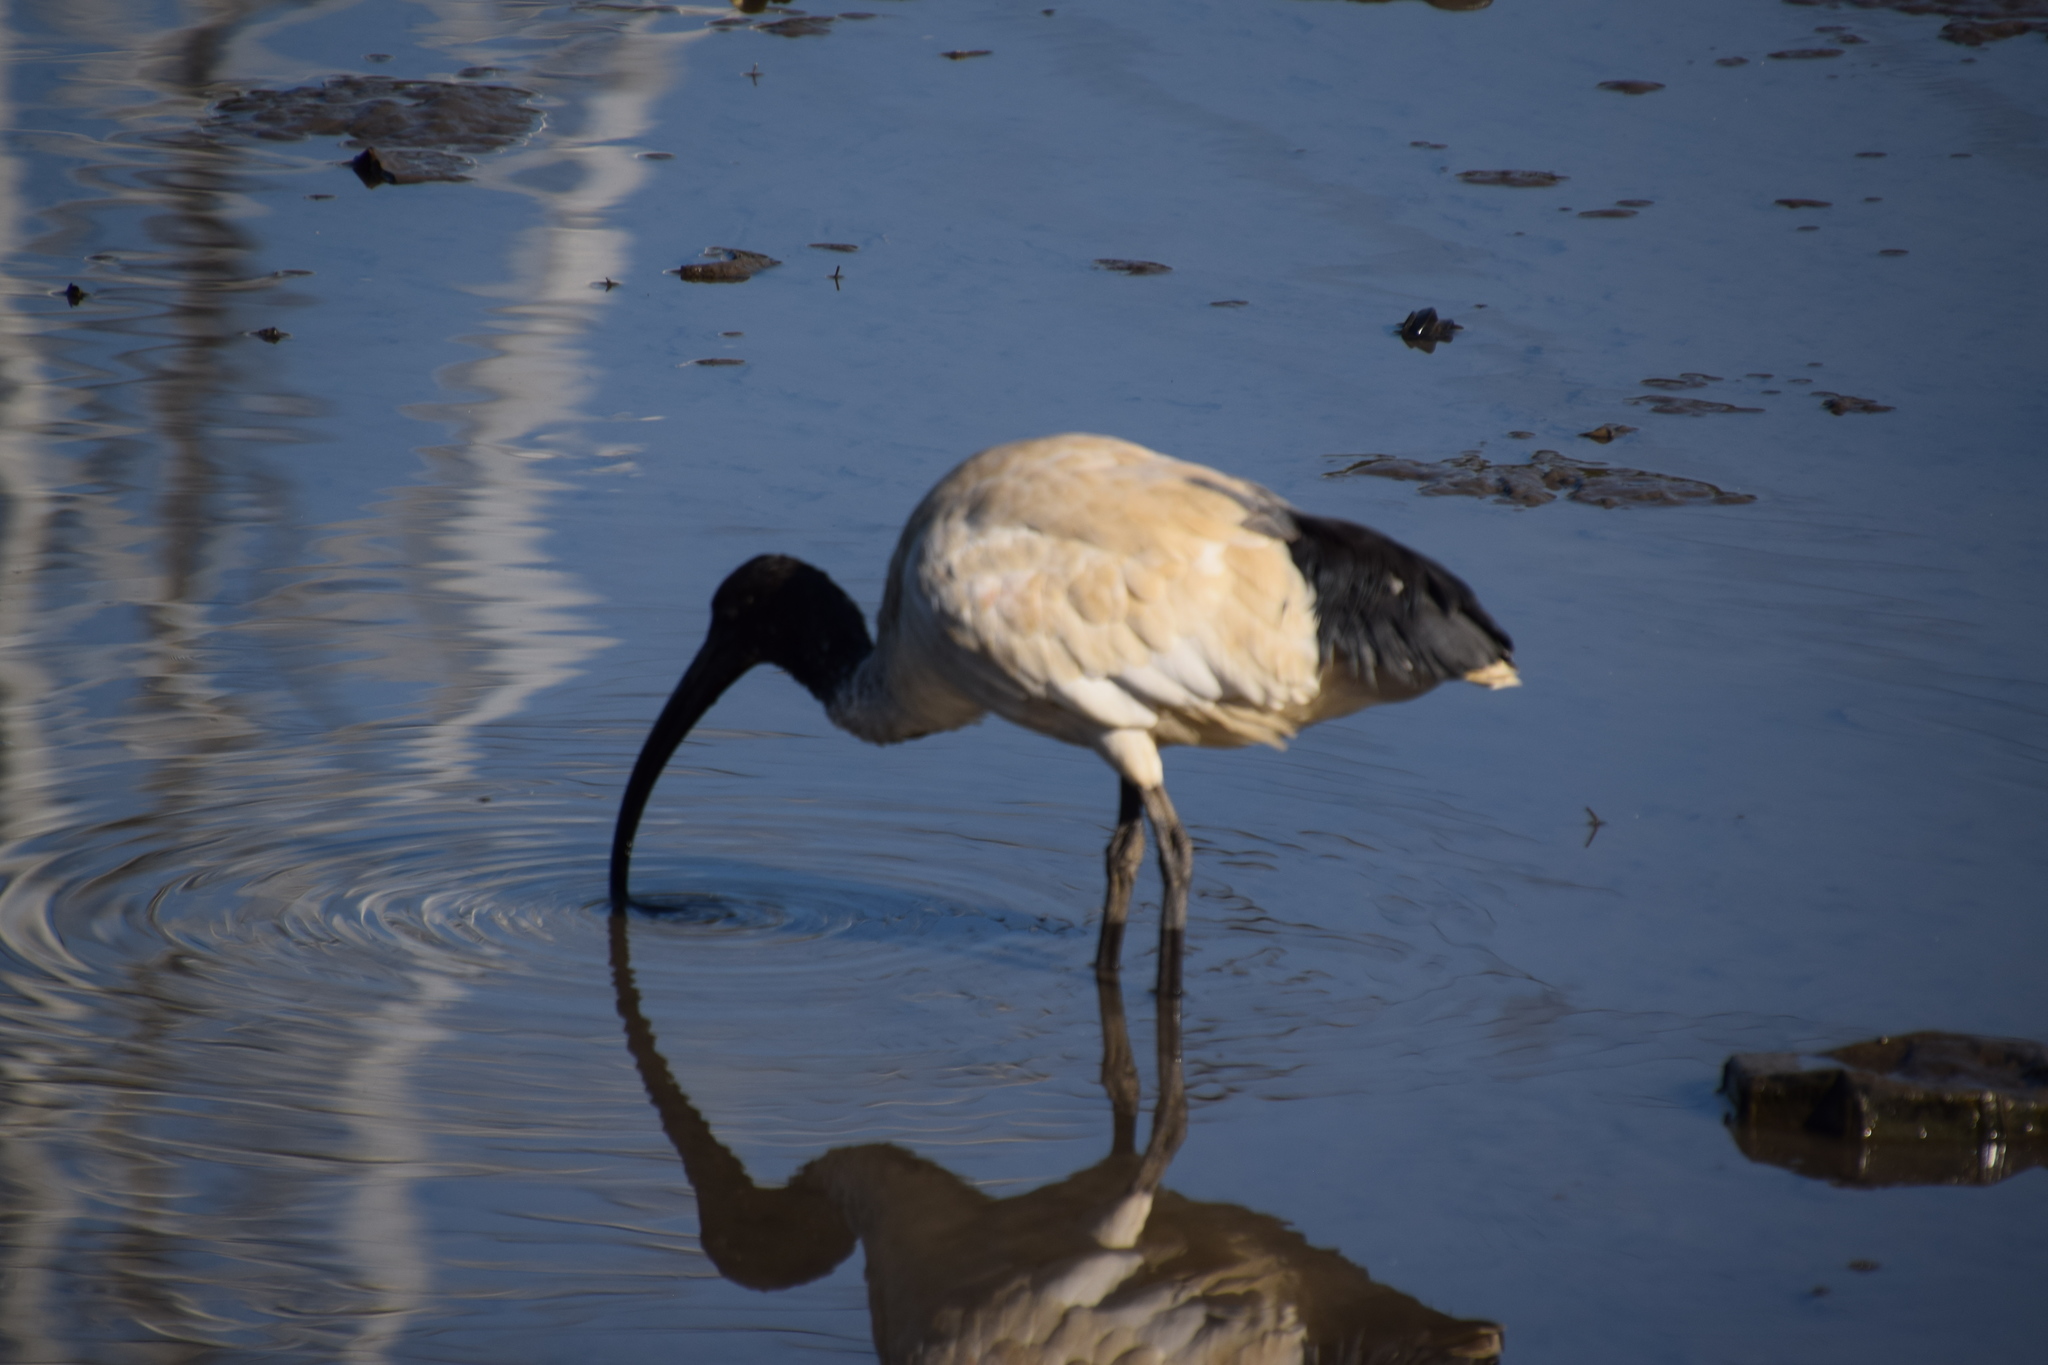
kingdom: Animalia
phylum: Chordata
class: Aves
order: Pelecaniformes
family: Threskiornithidae
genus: Threskiornis
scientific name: Threskiornis molucca
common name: Australian white ibis
